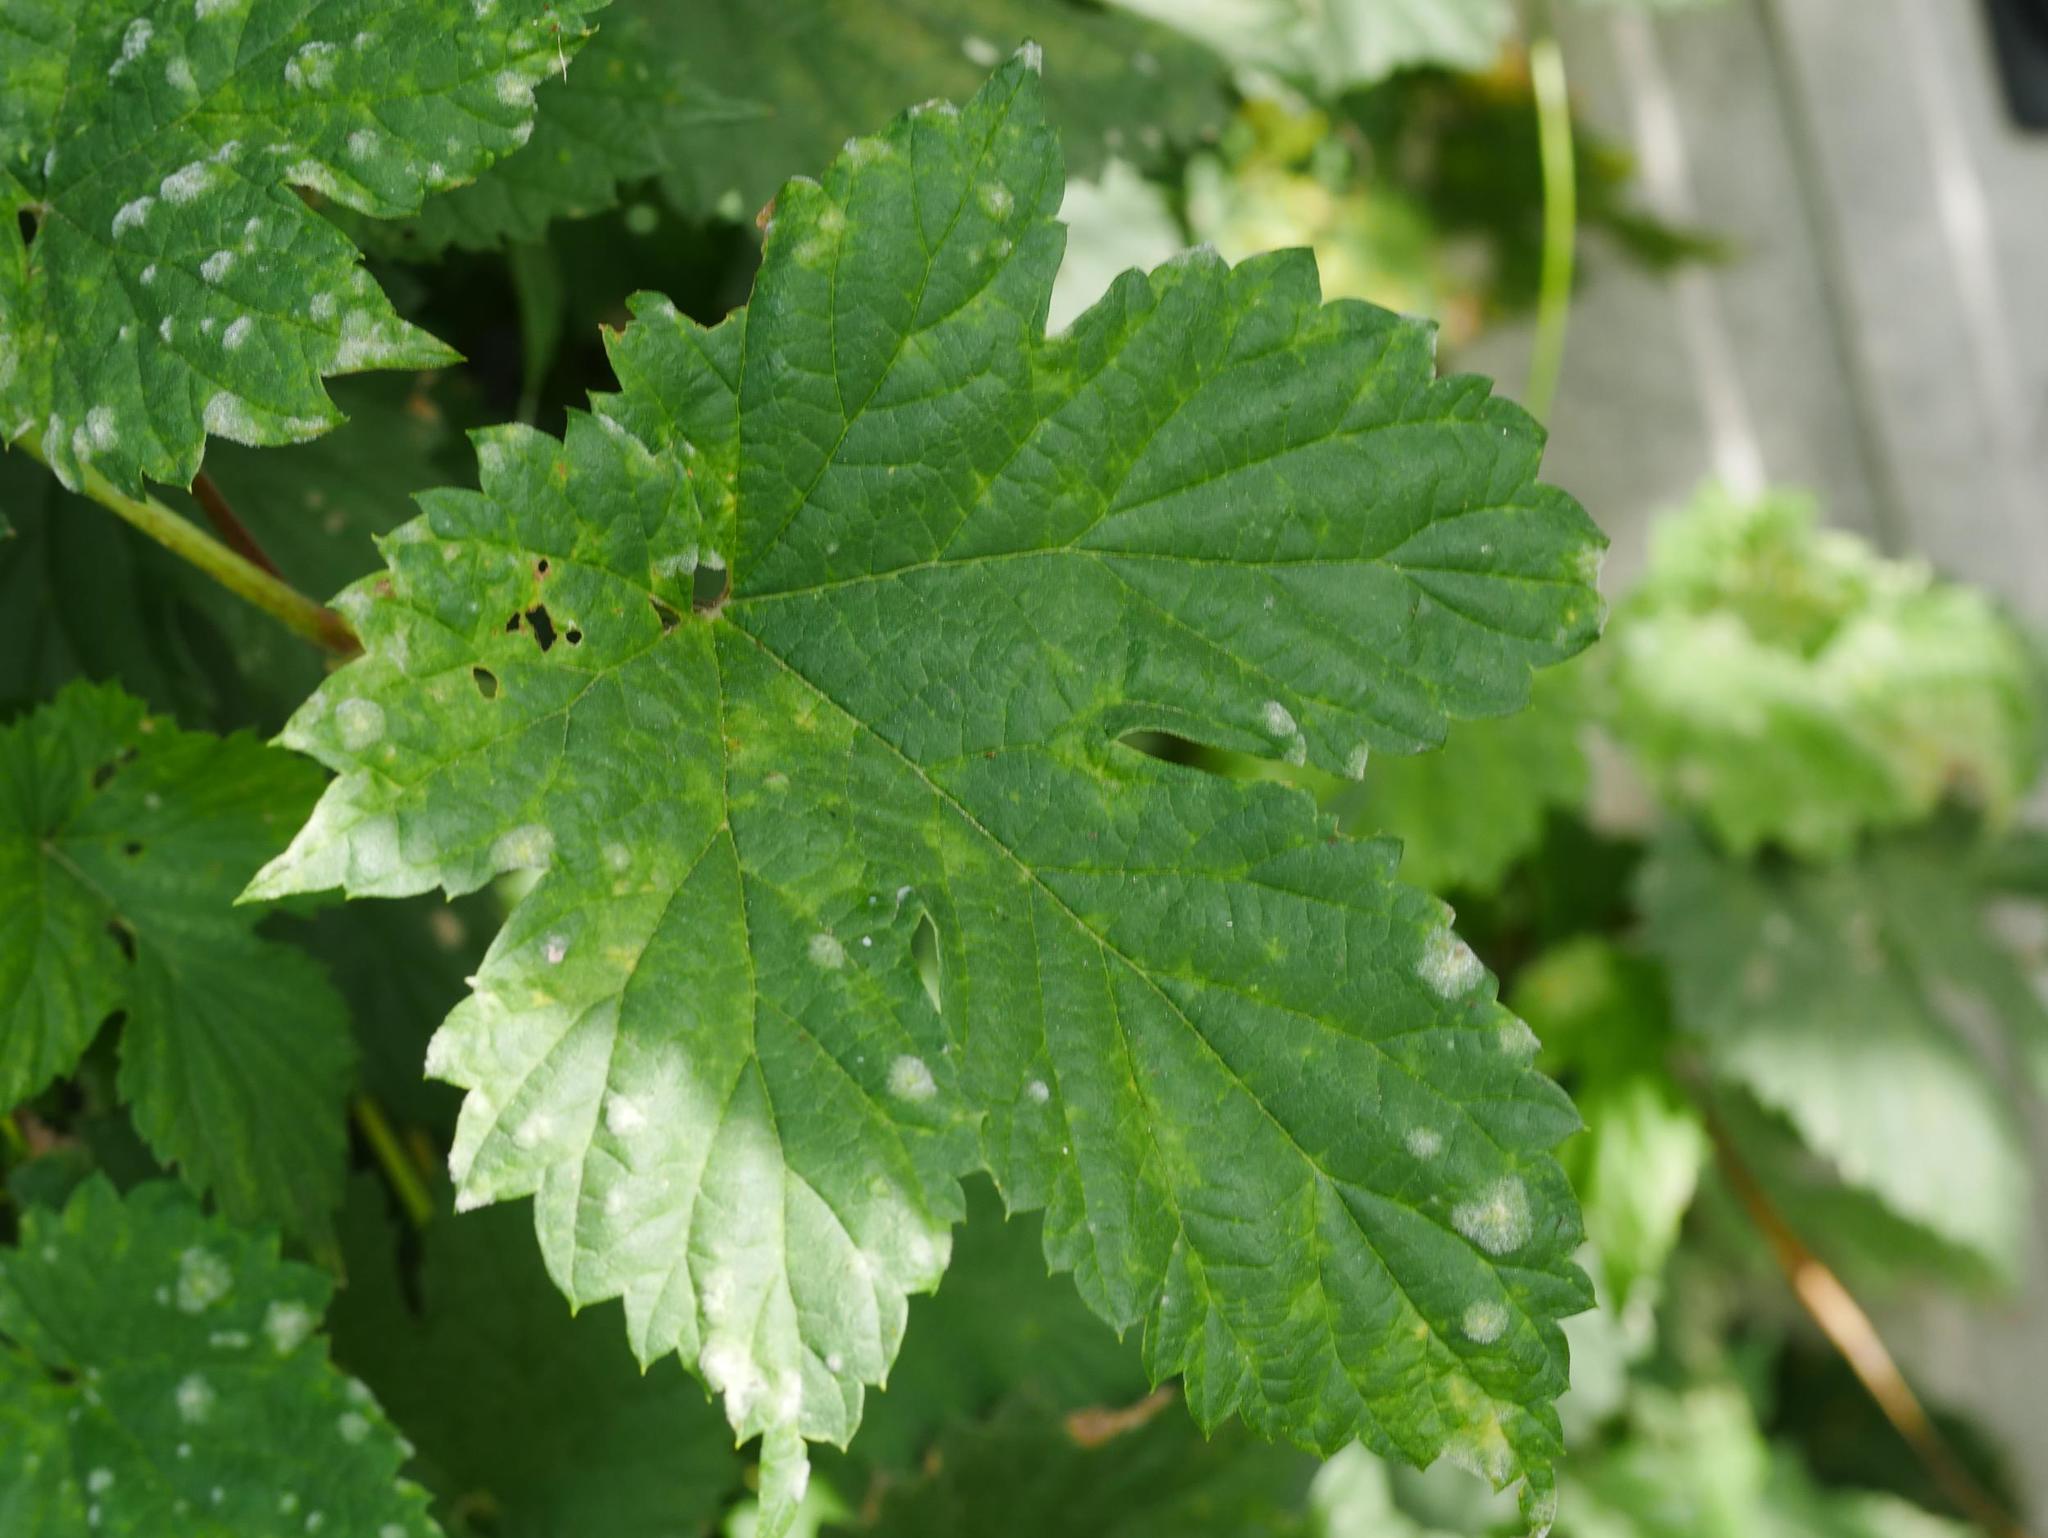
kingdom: Plantae
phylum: Tracheophyta
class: Magnoliopsida
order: Rosales
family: Cannabaceae
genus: Humulus
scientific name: Humulus lupulus
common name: Hop
